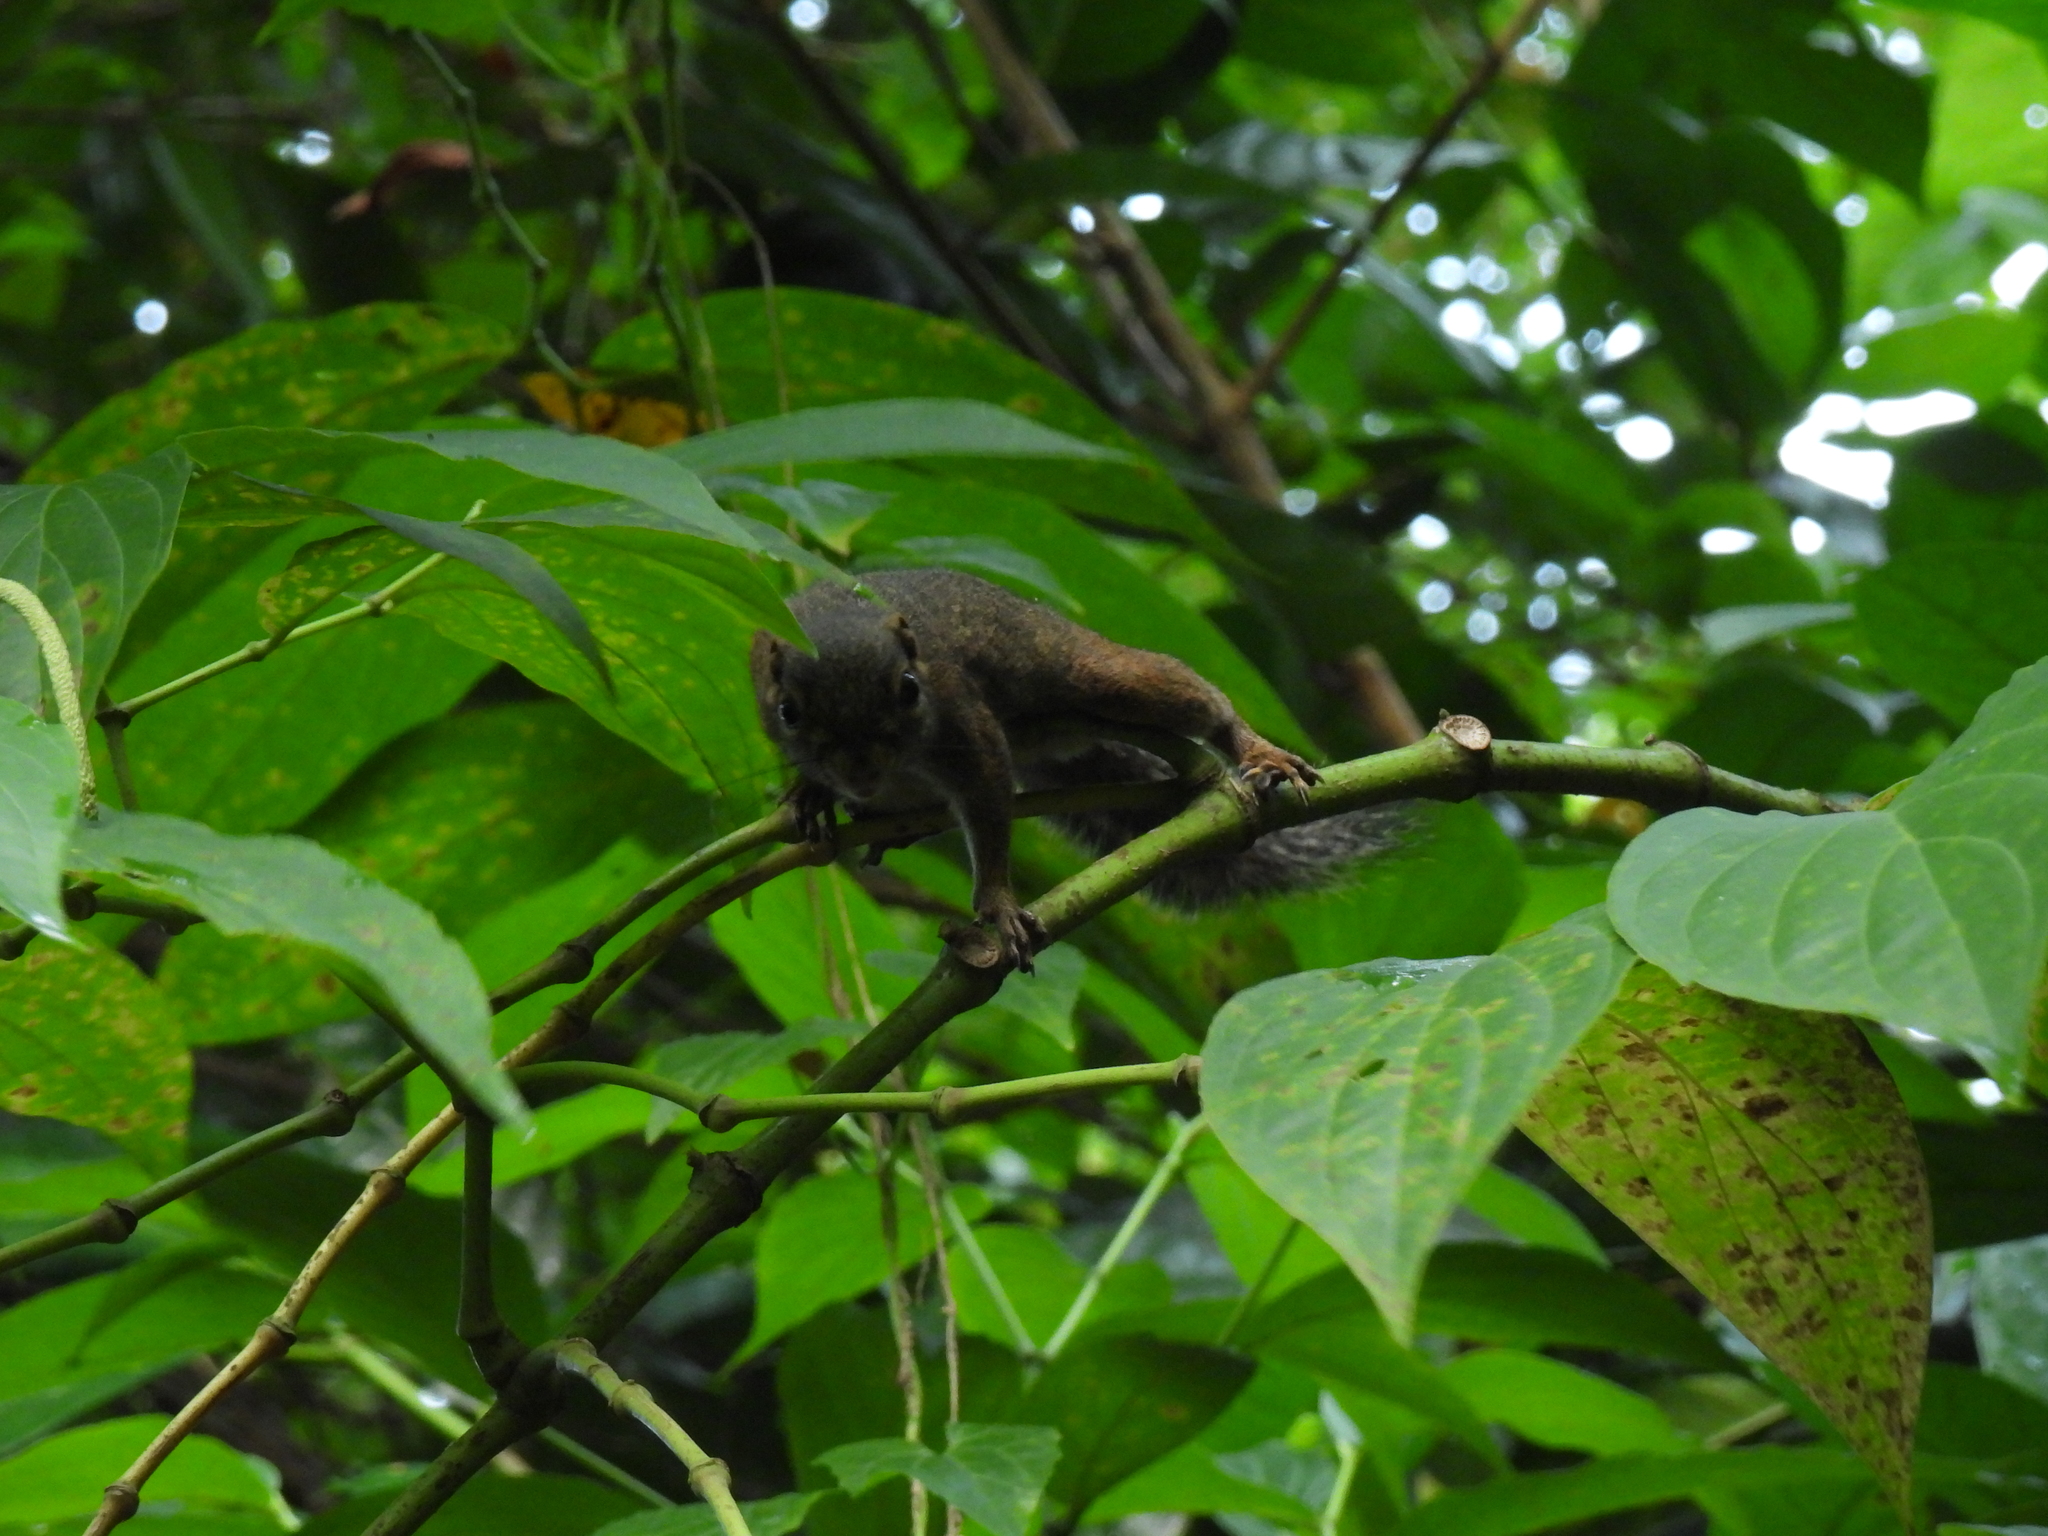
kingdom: Animalia
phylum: Chordata
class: Mammalia
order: Rodentia
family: Sciuridae
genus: Sundasciurus
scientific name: Sundasciurus tenuis
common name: Slender squirrel
